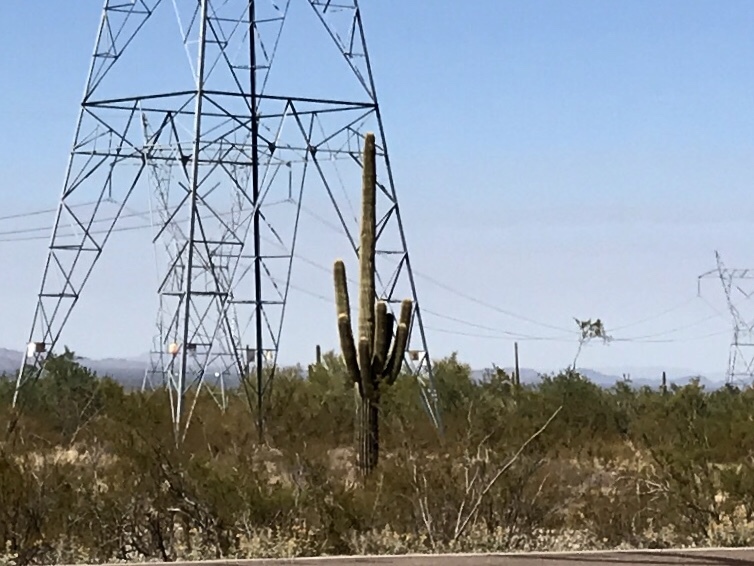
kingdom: Plantae
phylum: Tracheophyta
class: Magnoliopsida
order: Caryophyllales
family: Cactaceae
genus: Carnegiea
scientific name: Carnegiea gigantea
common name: Saguaro
